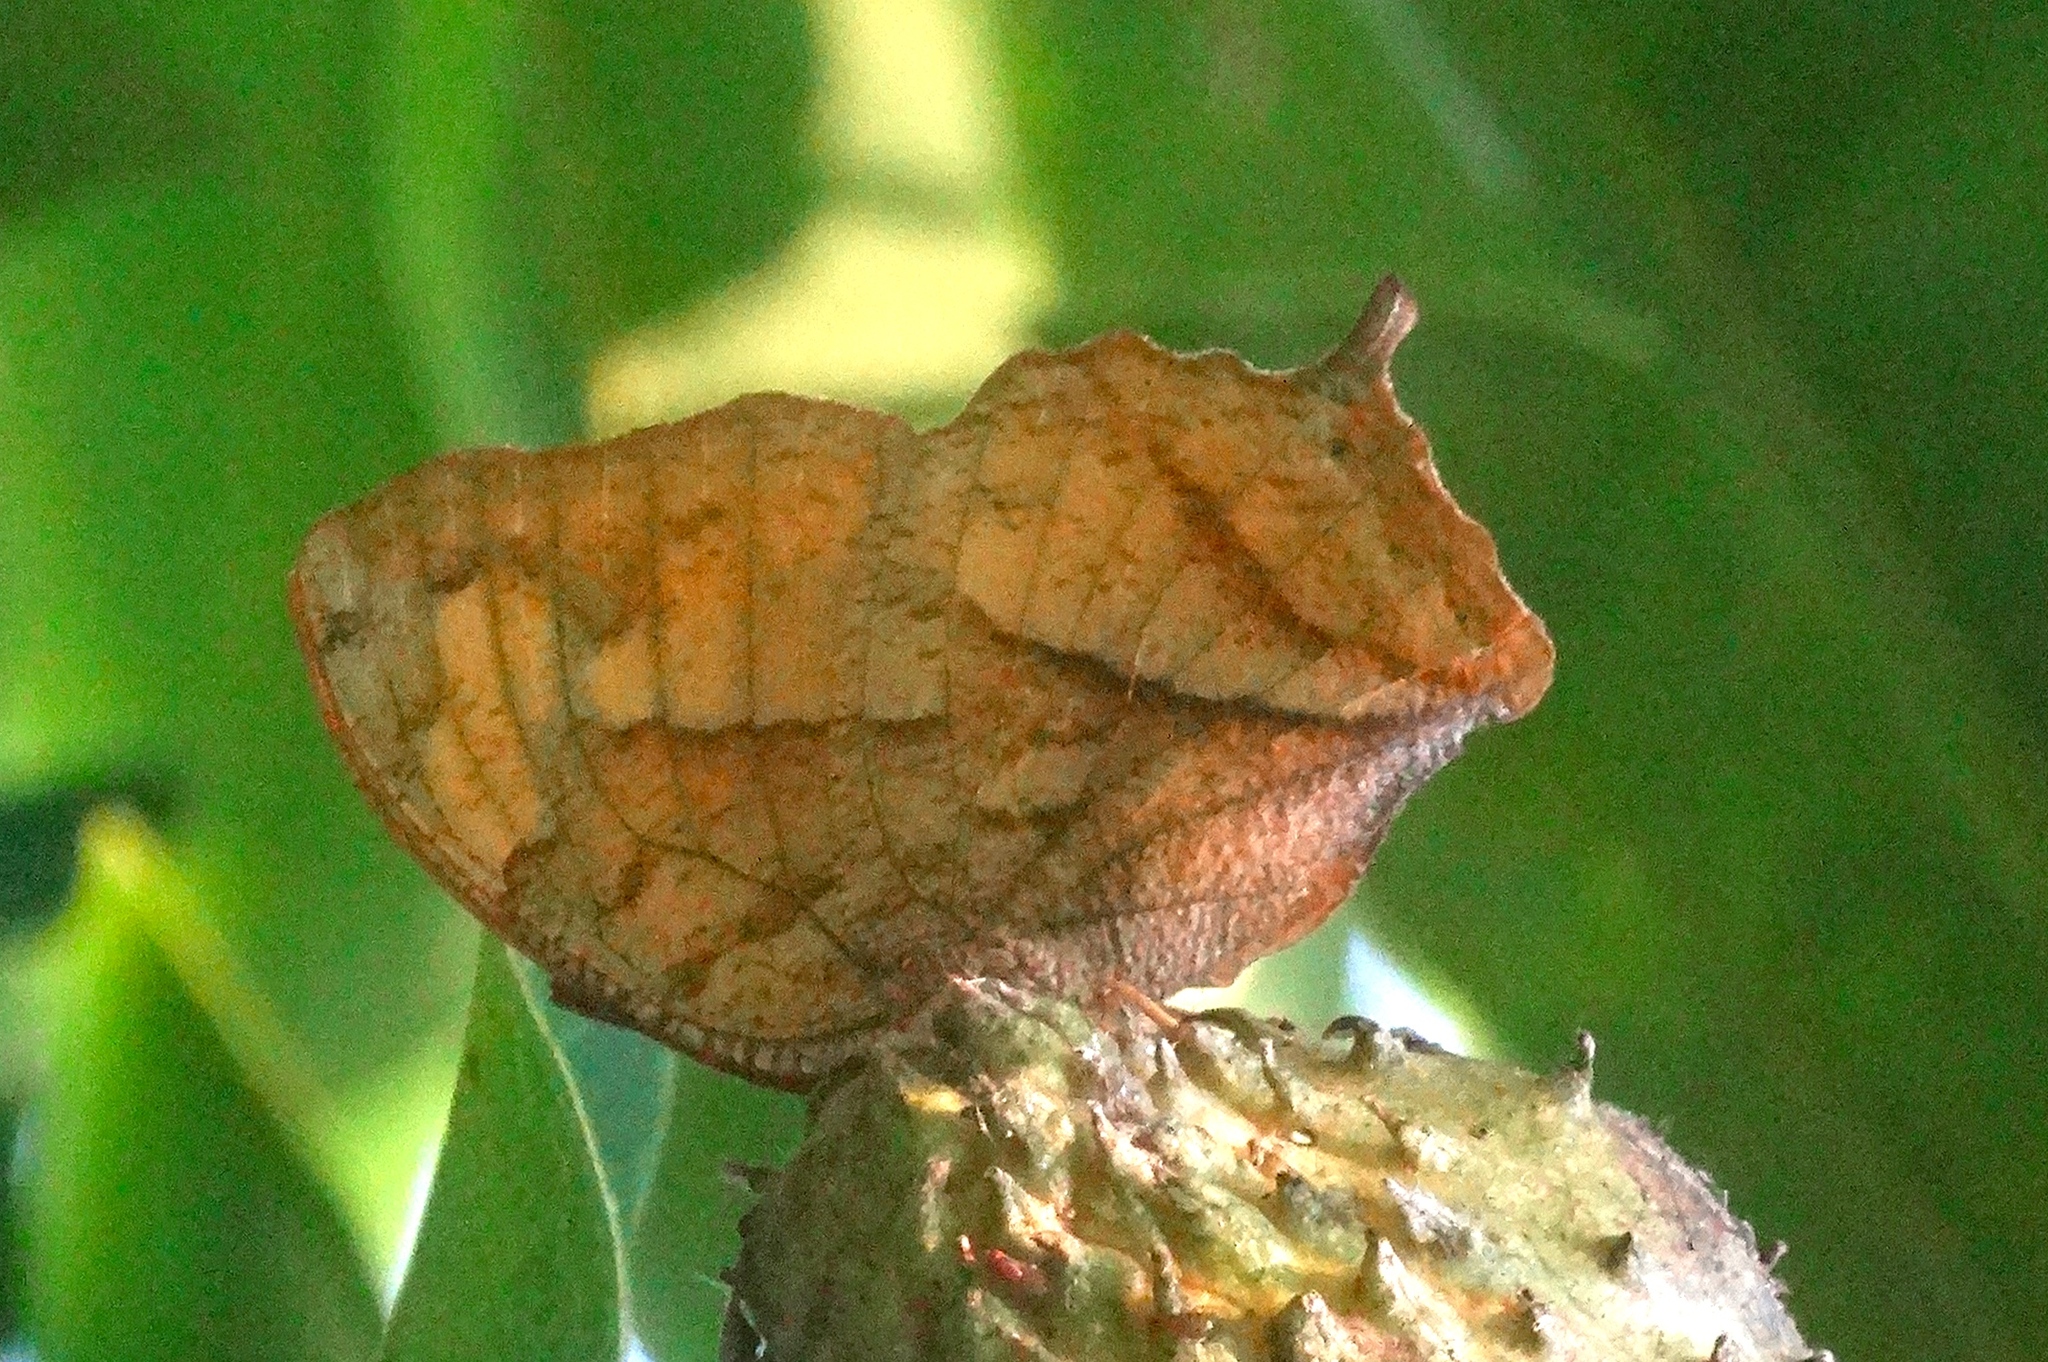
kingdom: Animalia
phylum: Arthropoda
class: Insecta
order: Lepidoptera
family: Nymphalidae
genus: Fountainea
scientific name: Fountainea
